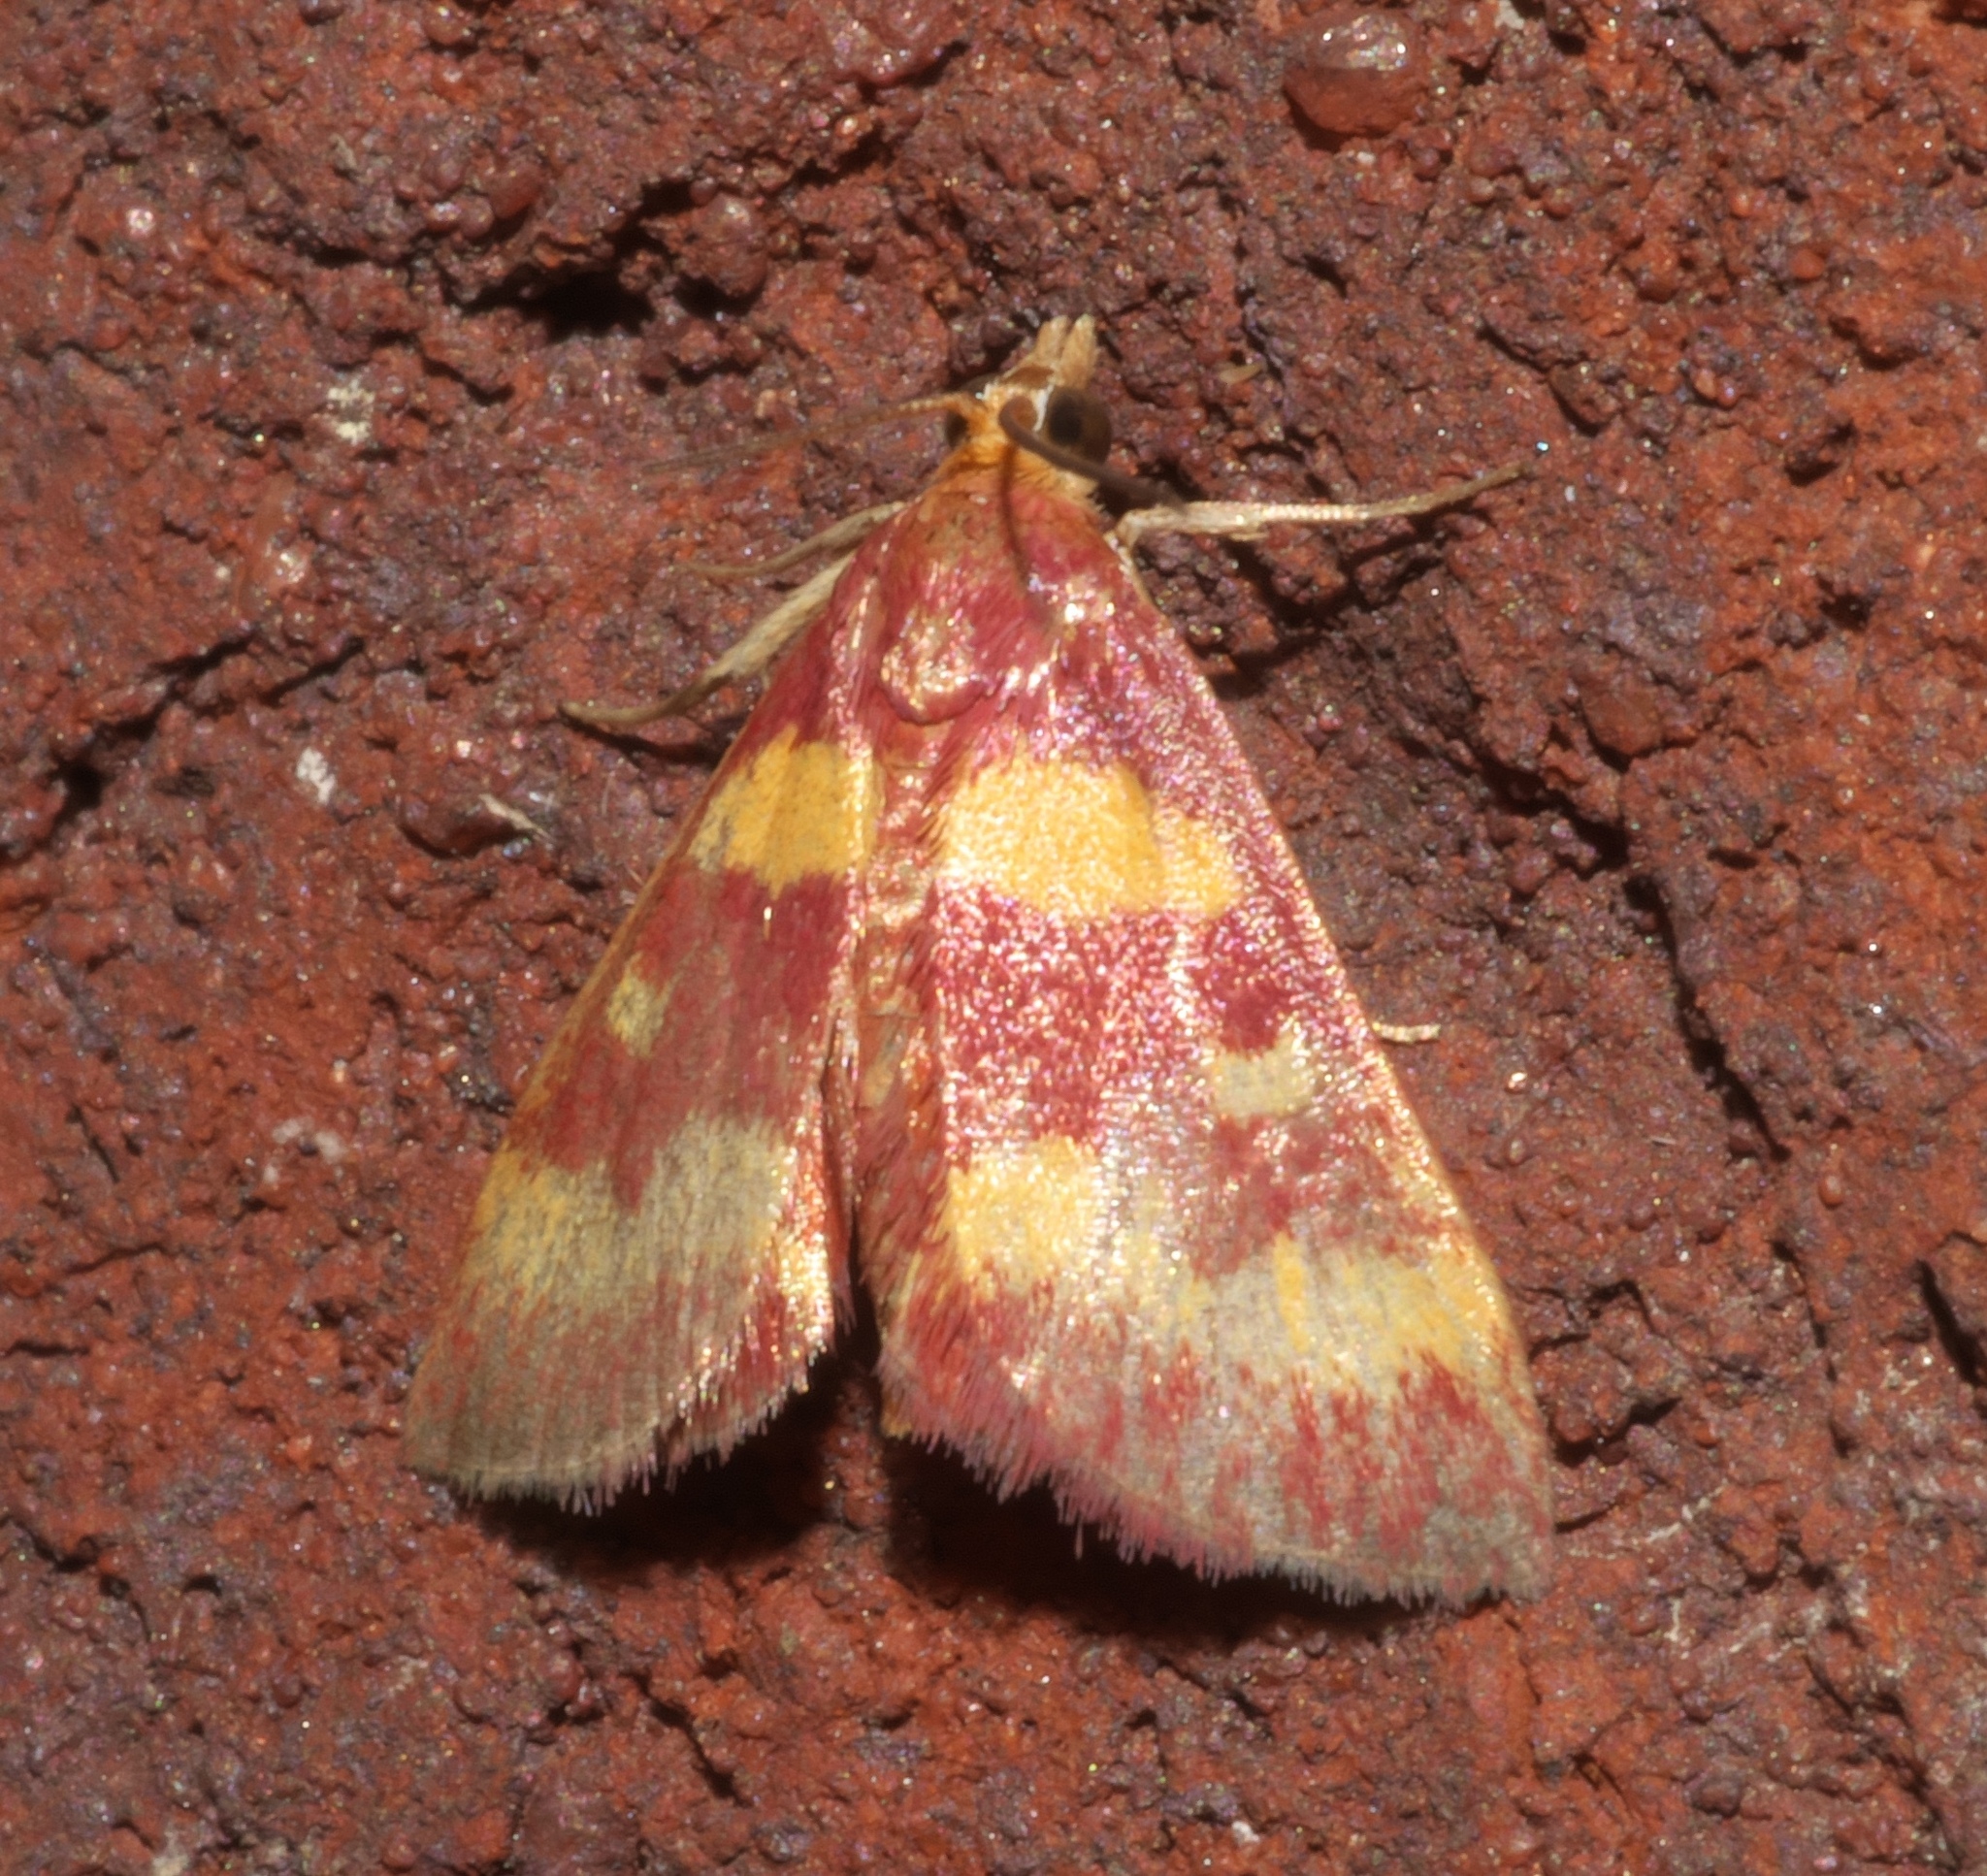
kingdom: Animalia
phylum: Arthropoda
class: Insecta
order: Lepidoptera
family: Crambidae
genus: Pyrausta
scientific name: Pyrausta tyralis
